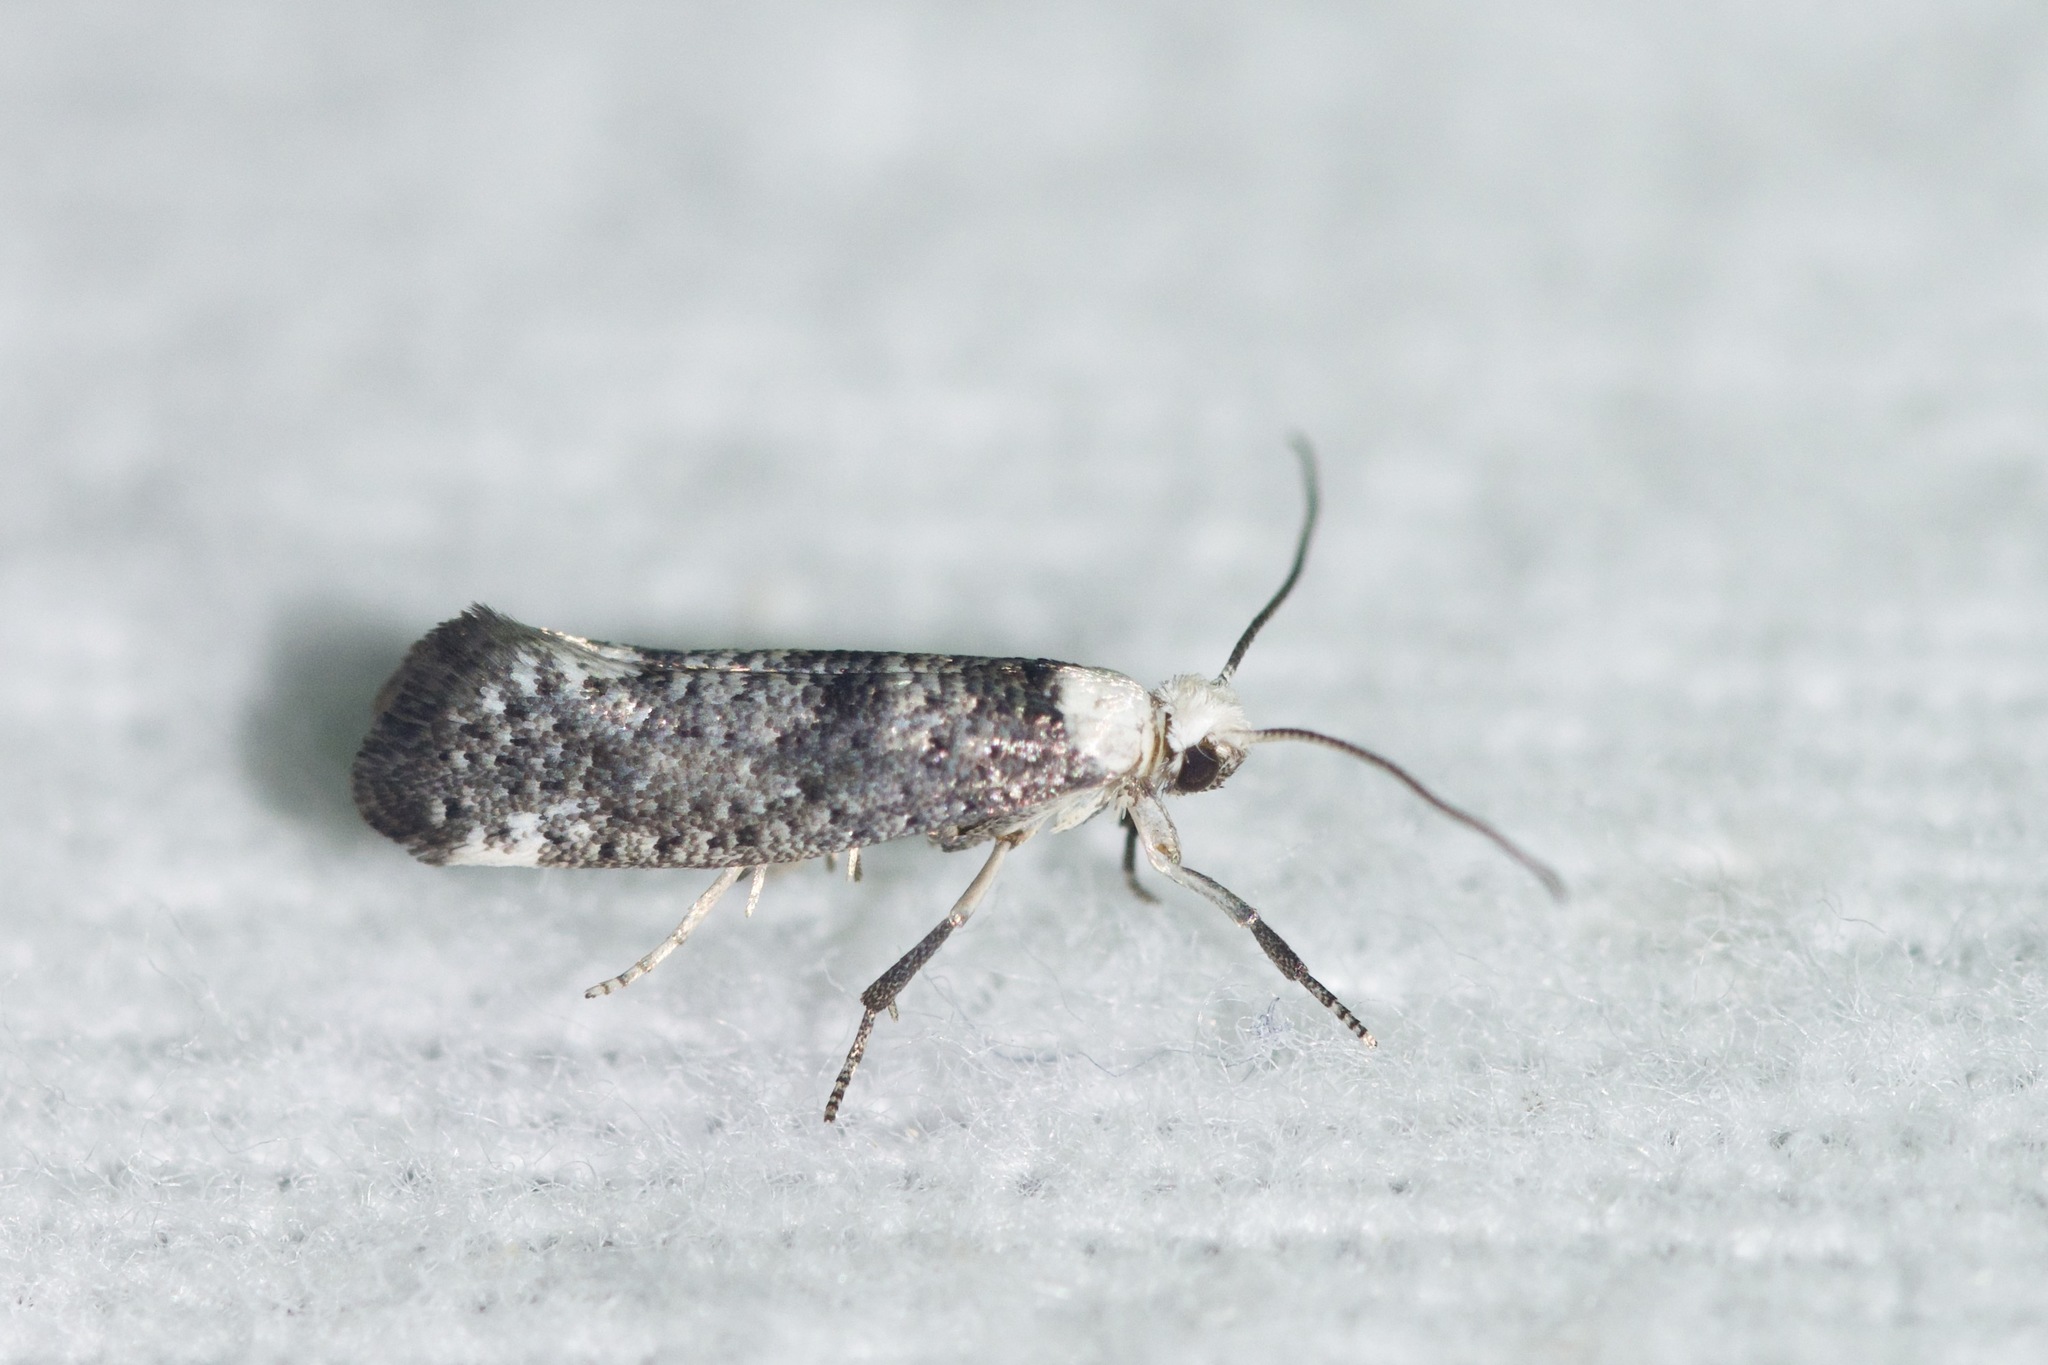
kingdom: Animalia
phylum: Arthropoda
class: Insecta
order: Lepidoptera
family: Yponomeutidae
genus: Swammerdamia
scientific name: Swammerdamia
